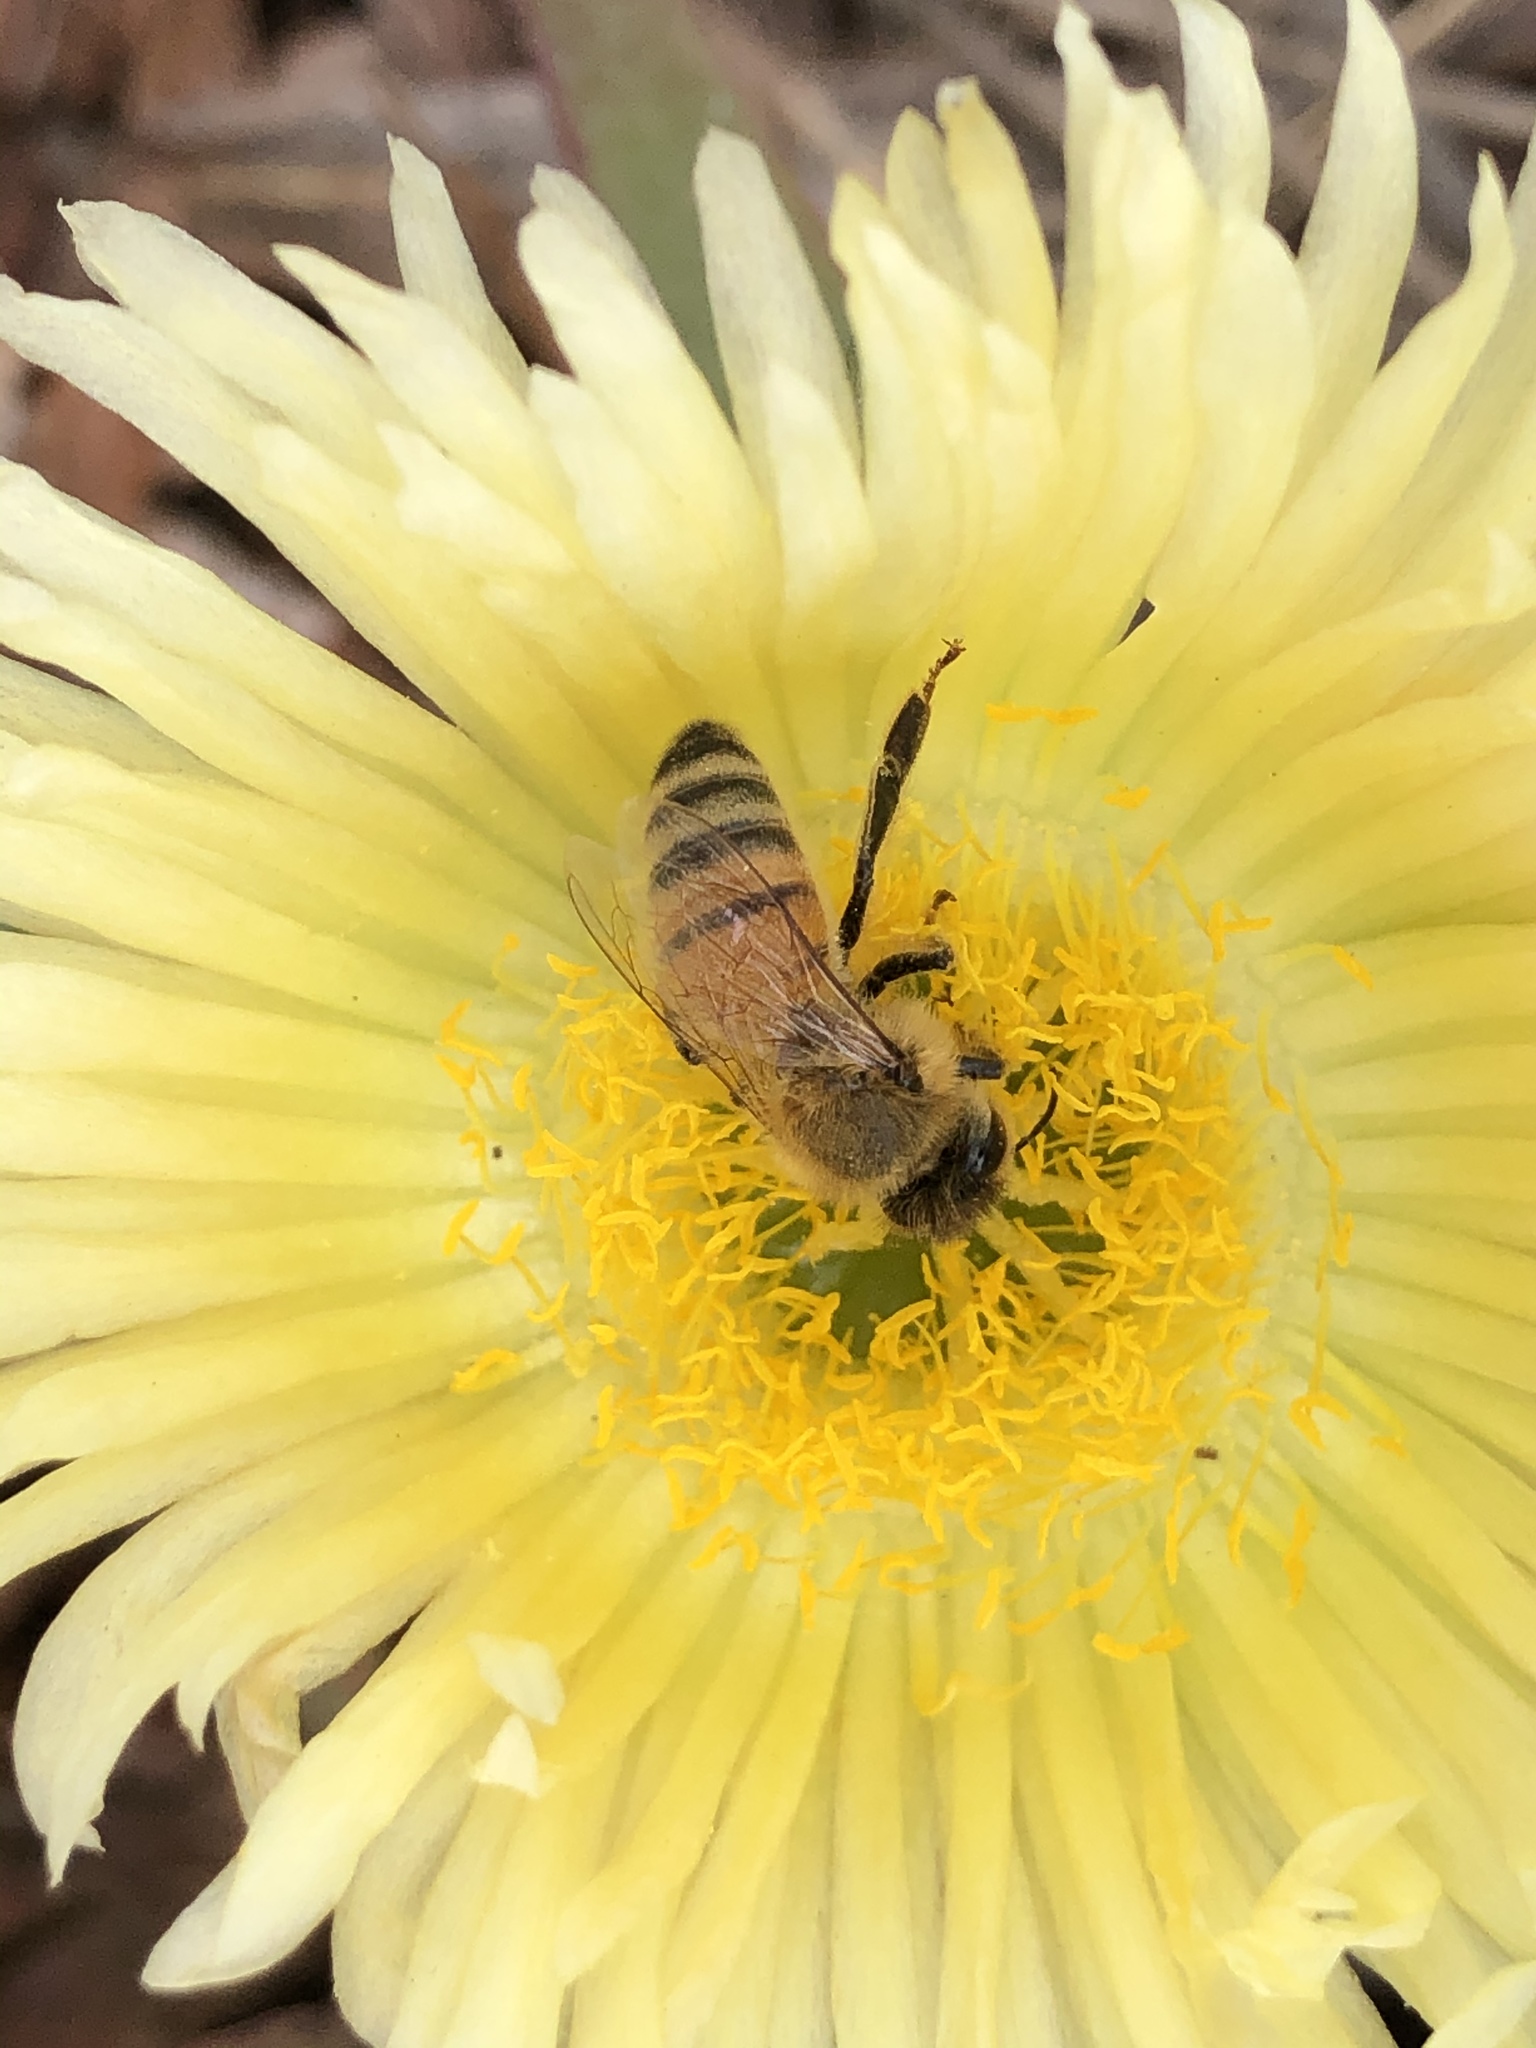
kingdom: Animalia
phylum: Arthropoda
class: Insecta
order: Hymenoptera
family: Apidae
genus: Apis
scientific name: Apis mellifera
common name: Honey bee
